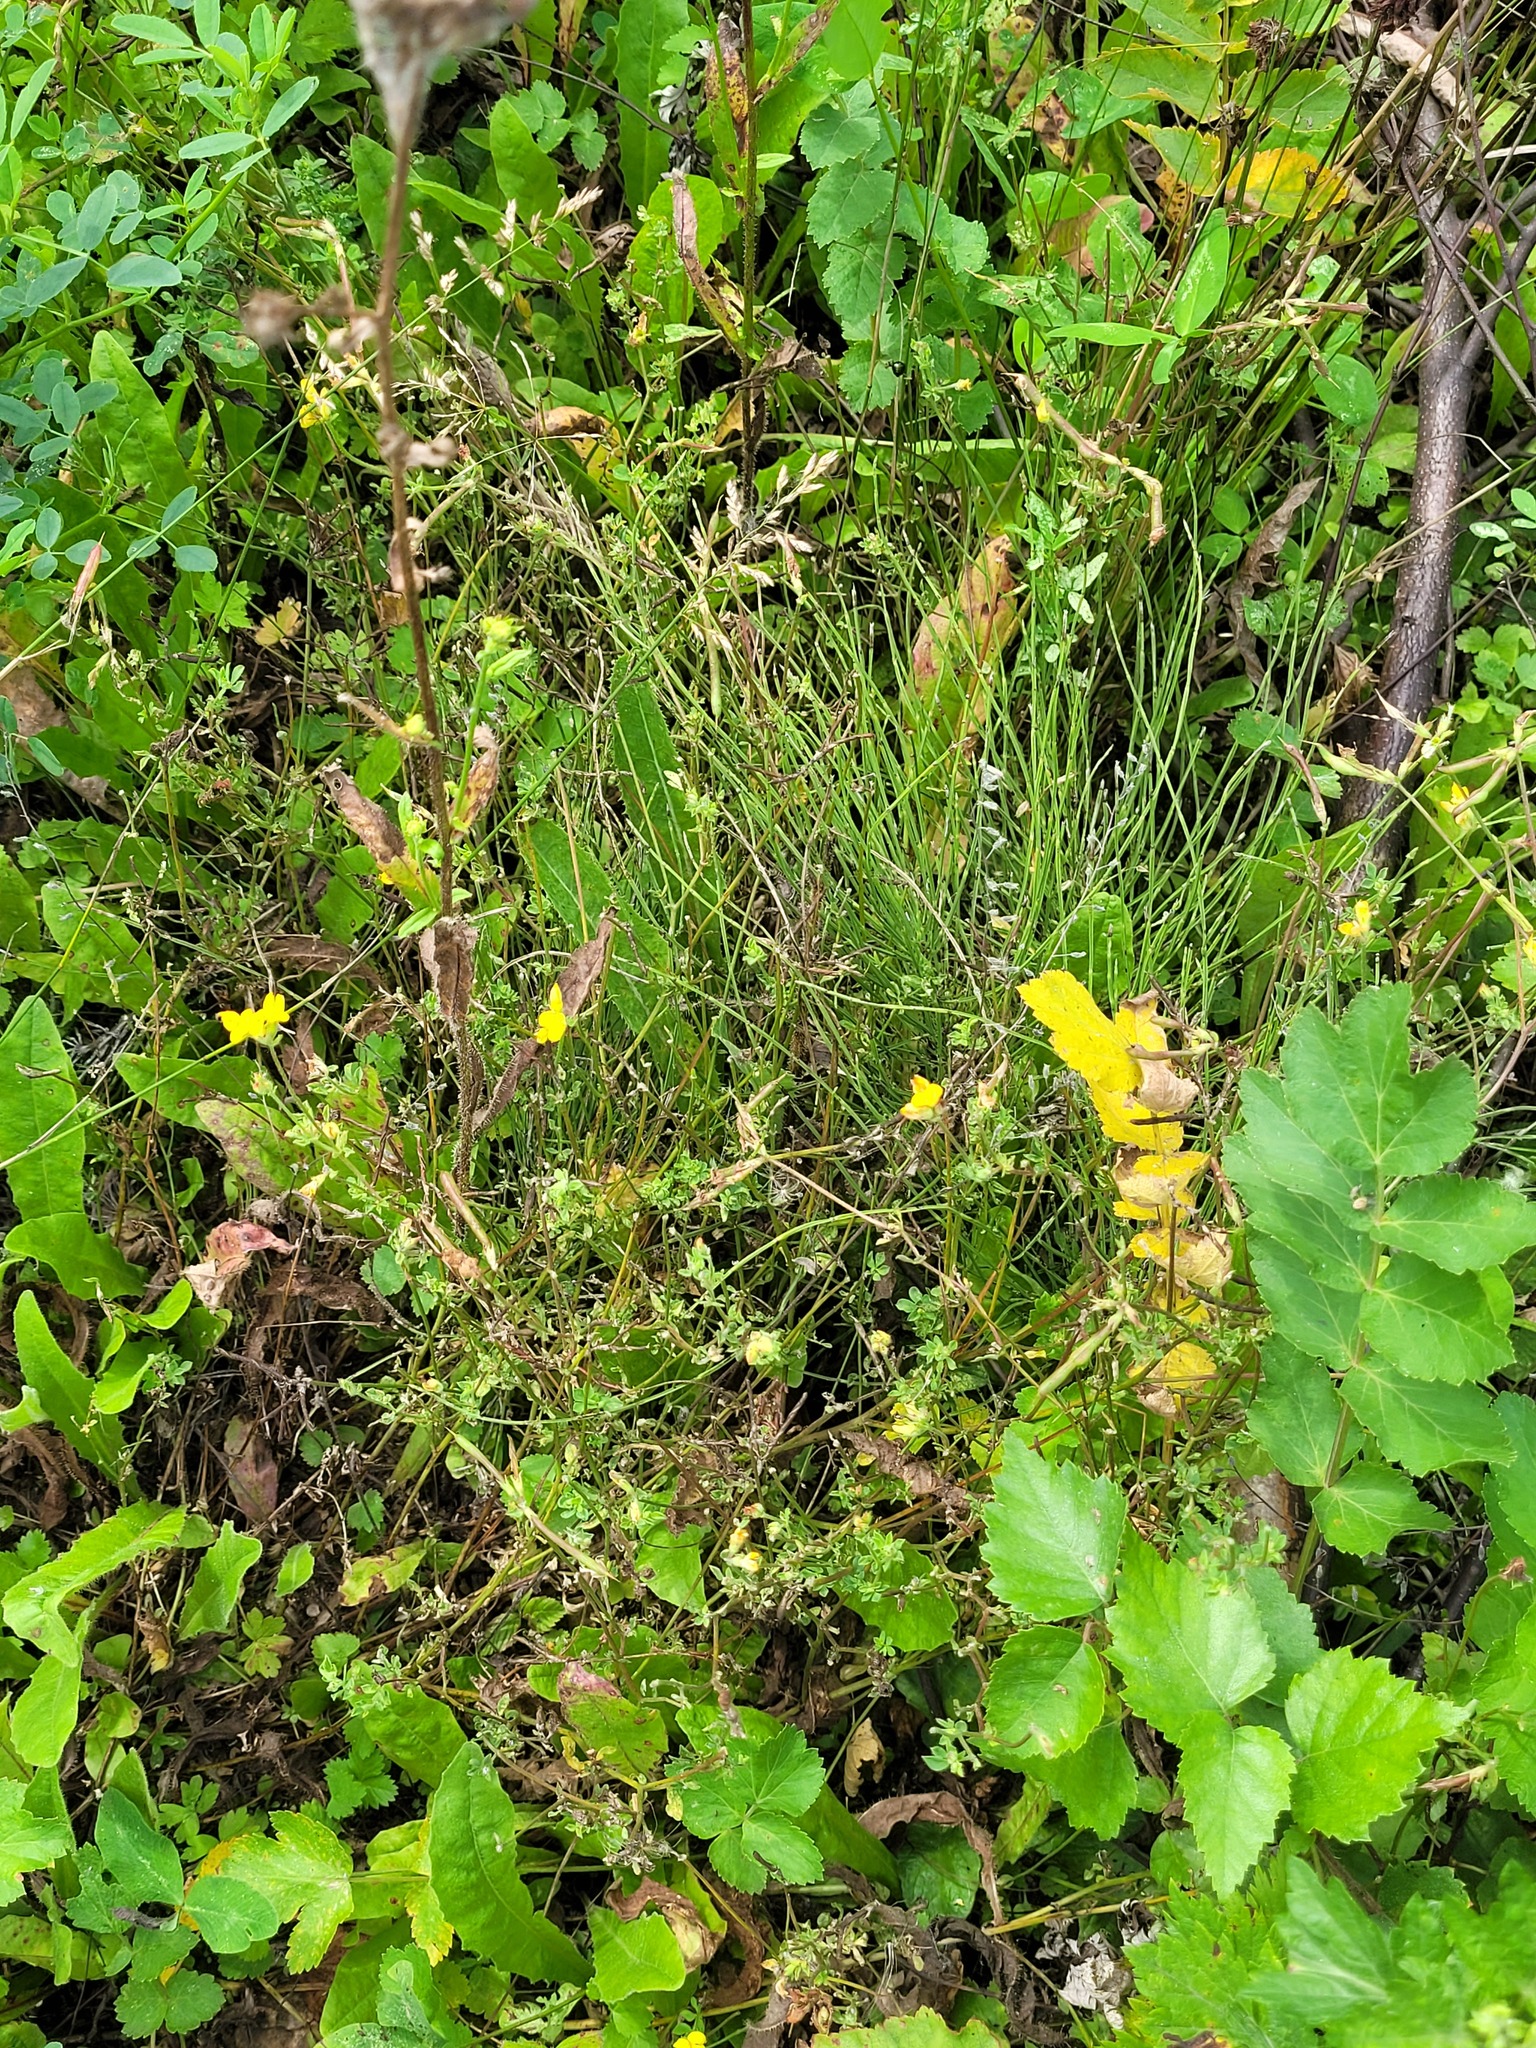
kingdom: Plantae
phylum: Tracheophyta
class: Magnoliopsida
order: Fabales
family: Fabaceae
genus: Lotus
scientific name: Lotus corniculatus
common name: Common bird's-foot-trefoil
